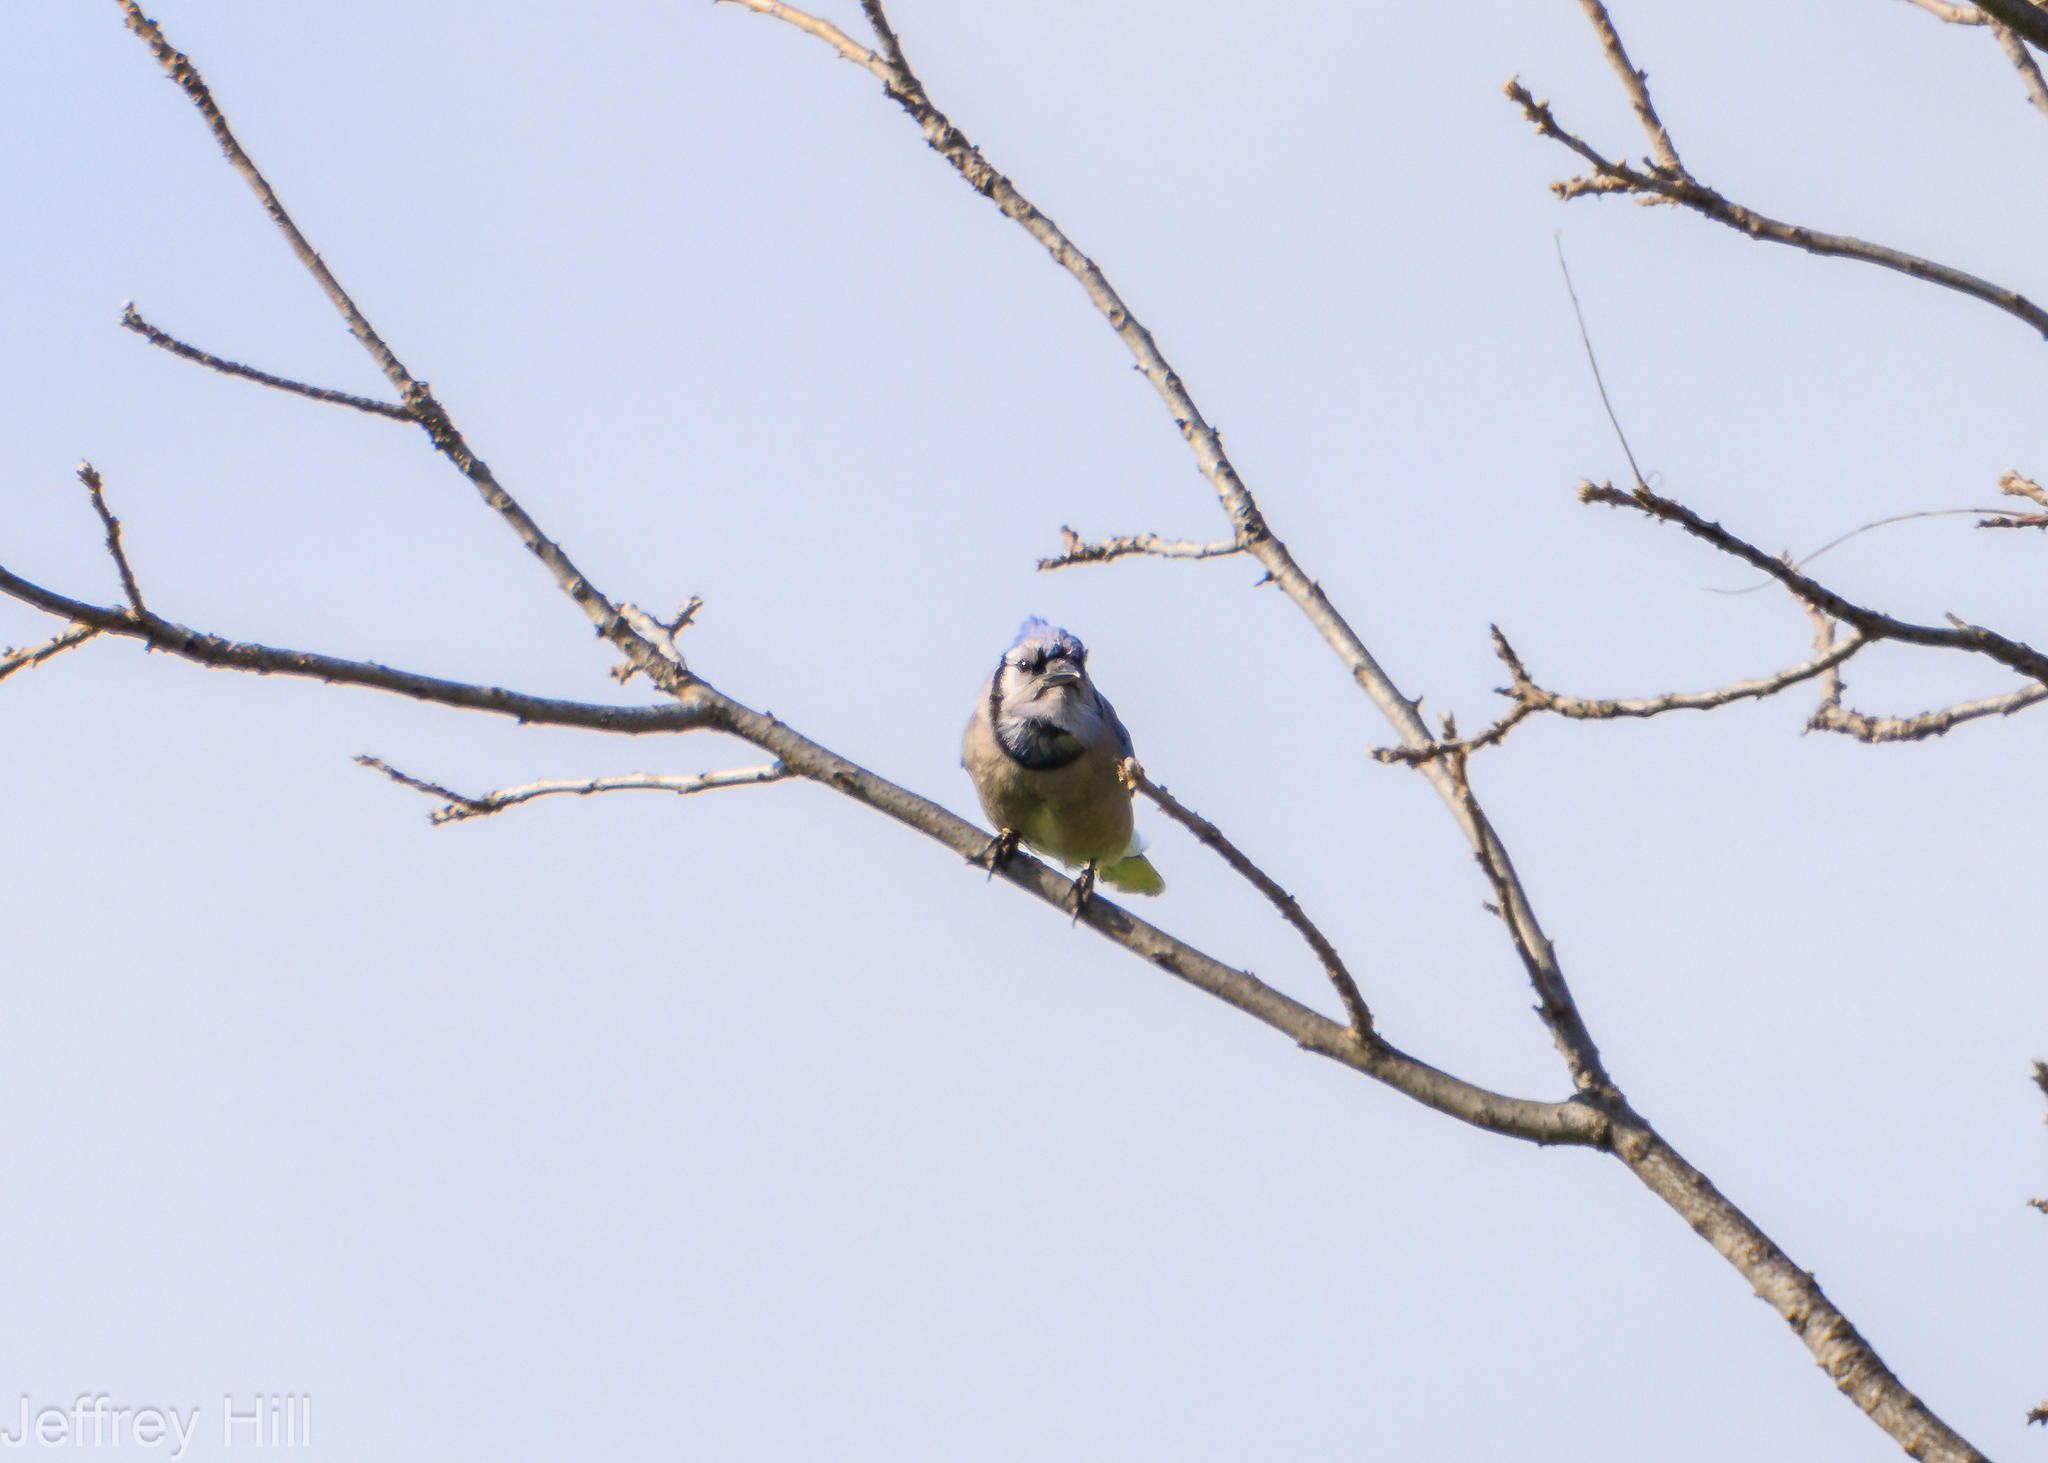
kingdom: Animalia
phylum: Chordata
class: Aves
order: Passeriformes
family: Corvidae
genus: Cyanocitta
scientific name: Cyanocitta cristata
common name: Blue jay
